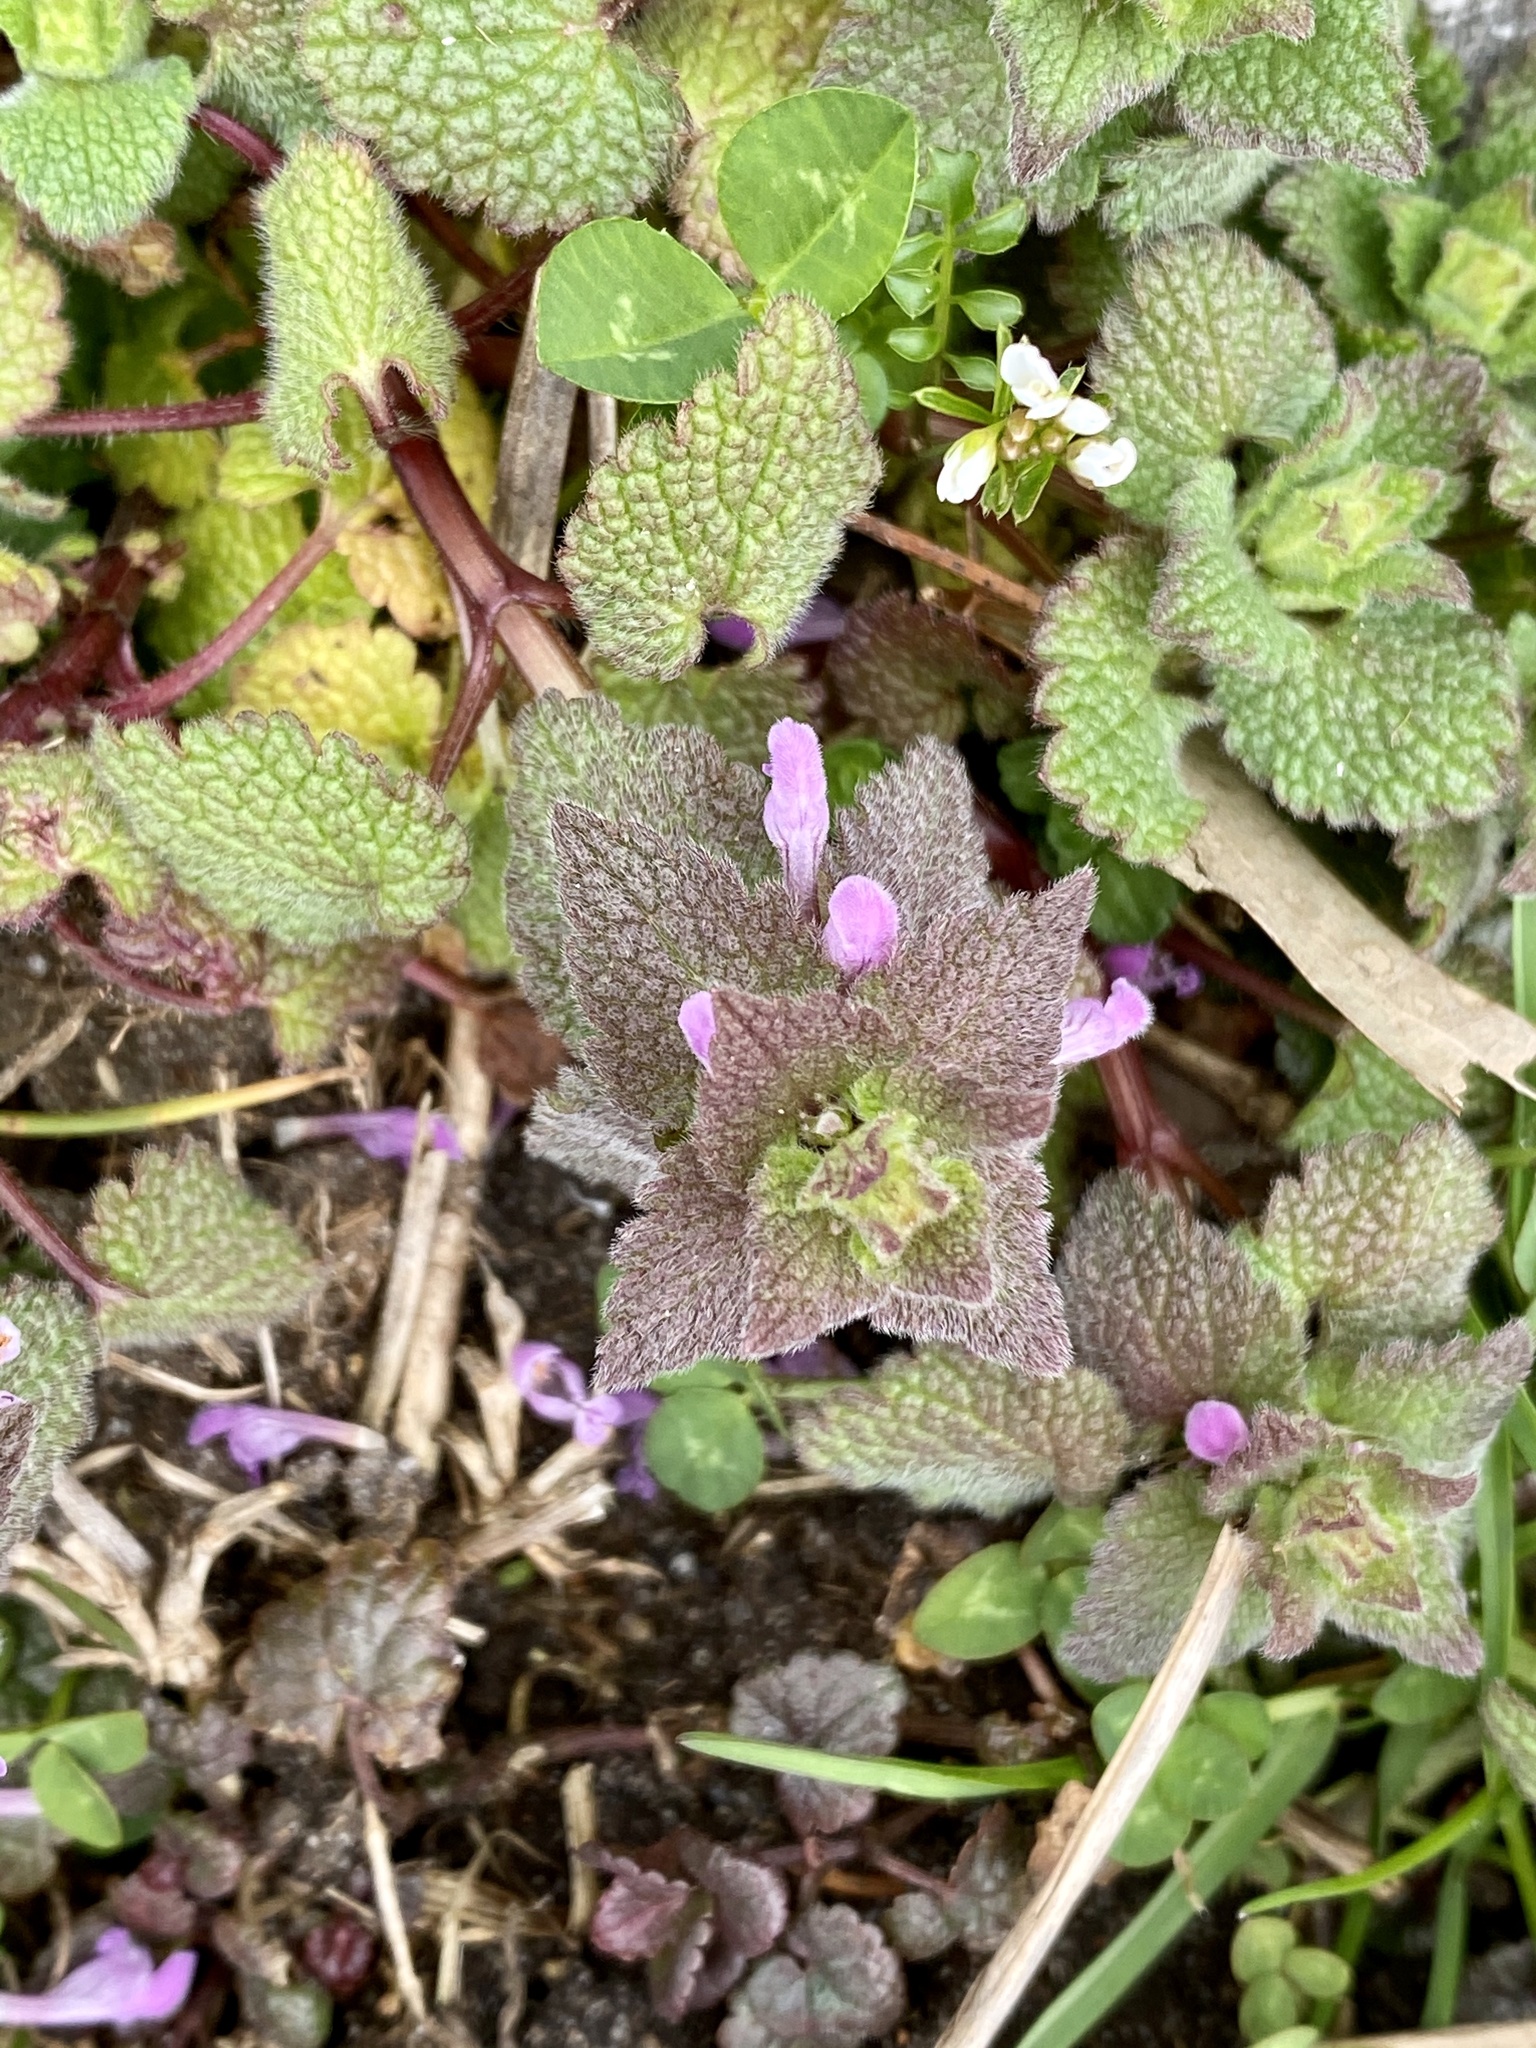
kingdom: Plantae
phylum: Tracheophyta
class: Magnoliopsida
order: Lamiales
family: Lamiaceae
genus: Lamium
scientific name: Lamium purpureum
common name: Red dead-nettle
